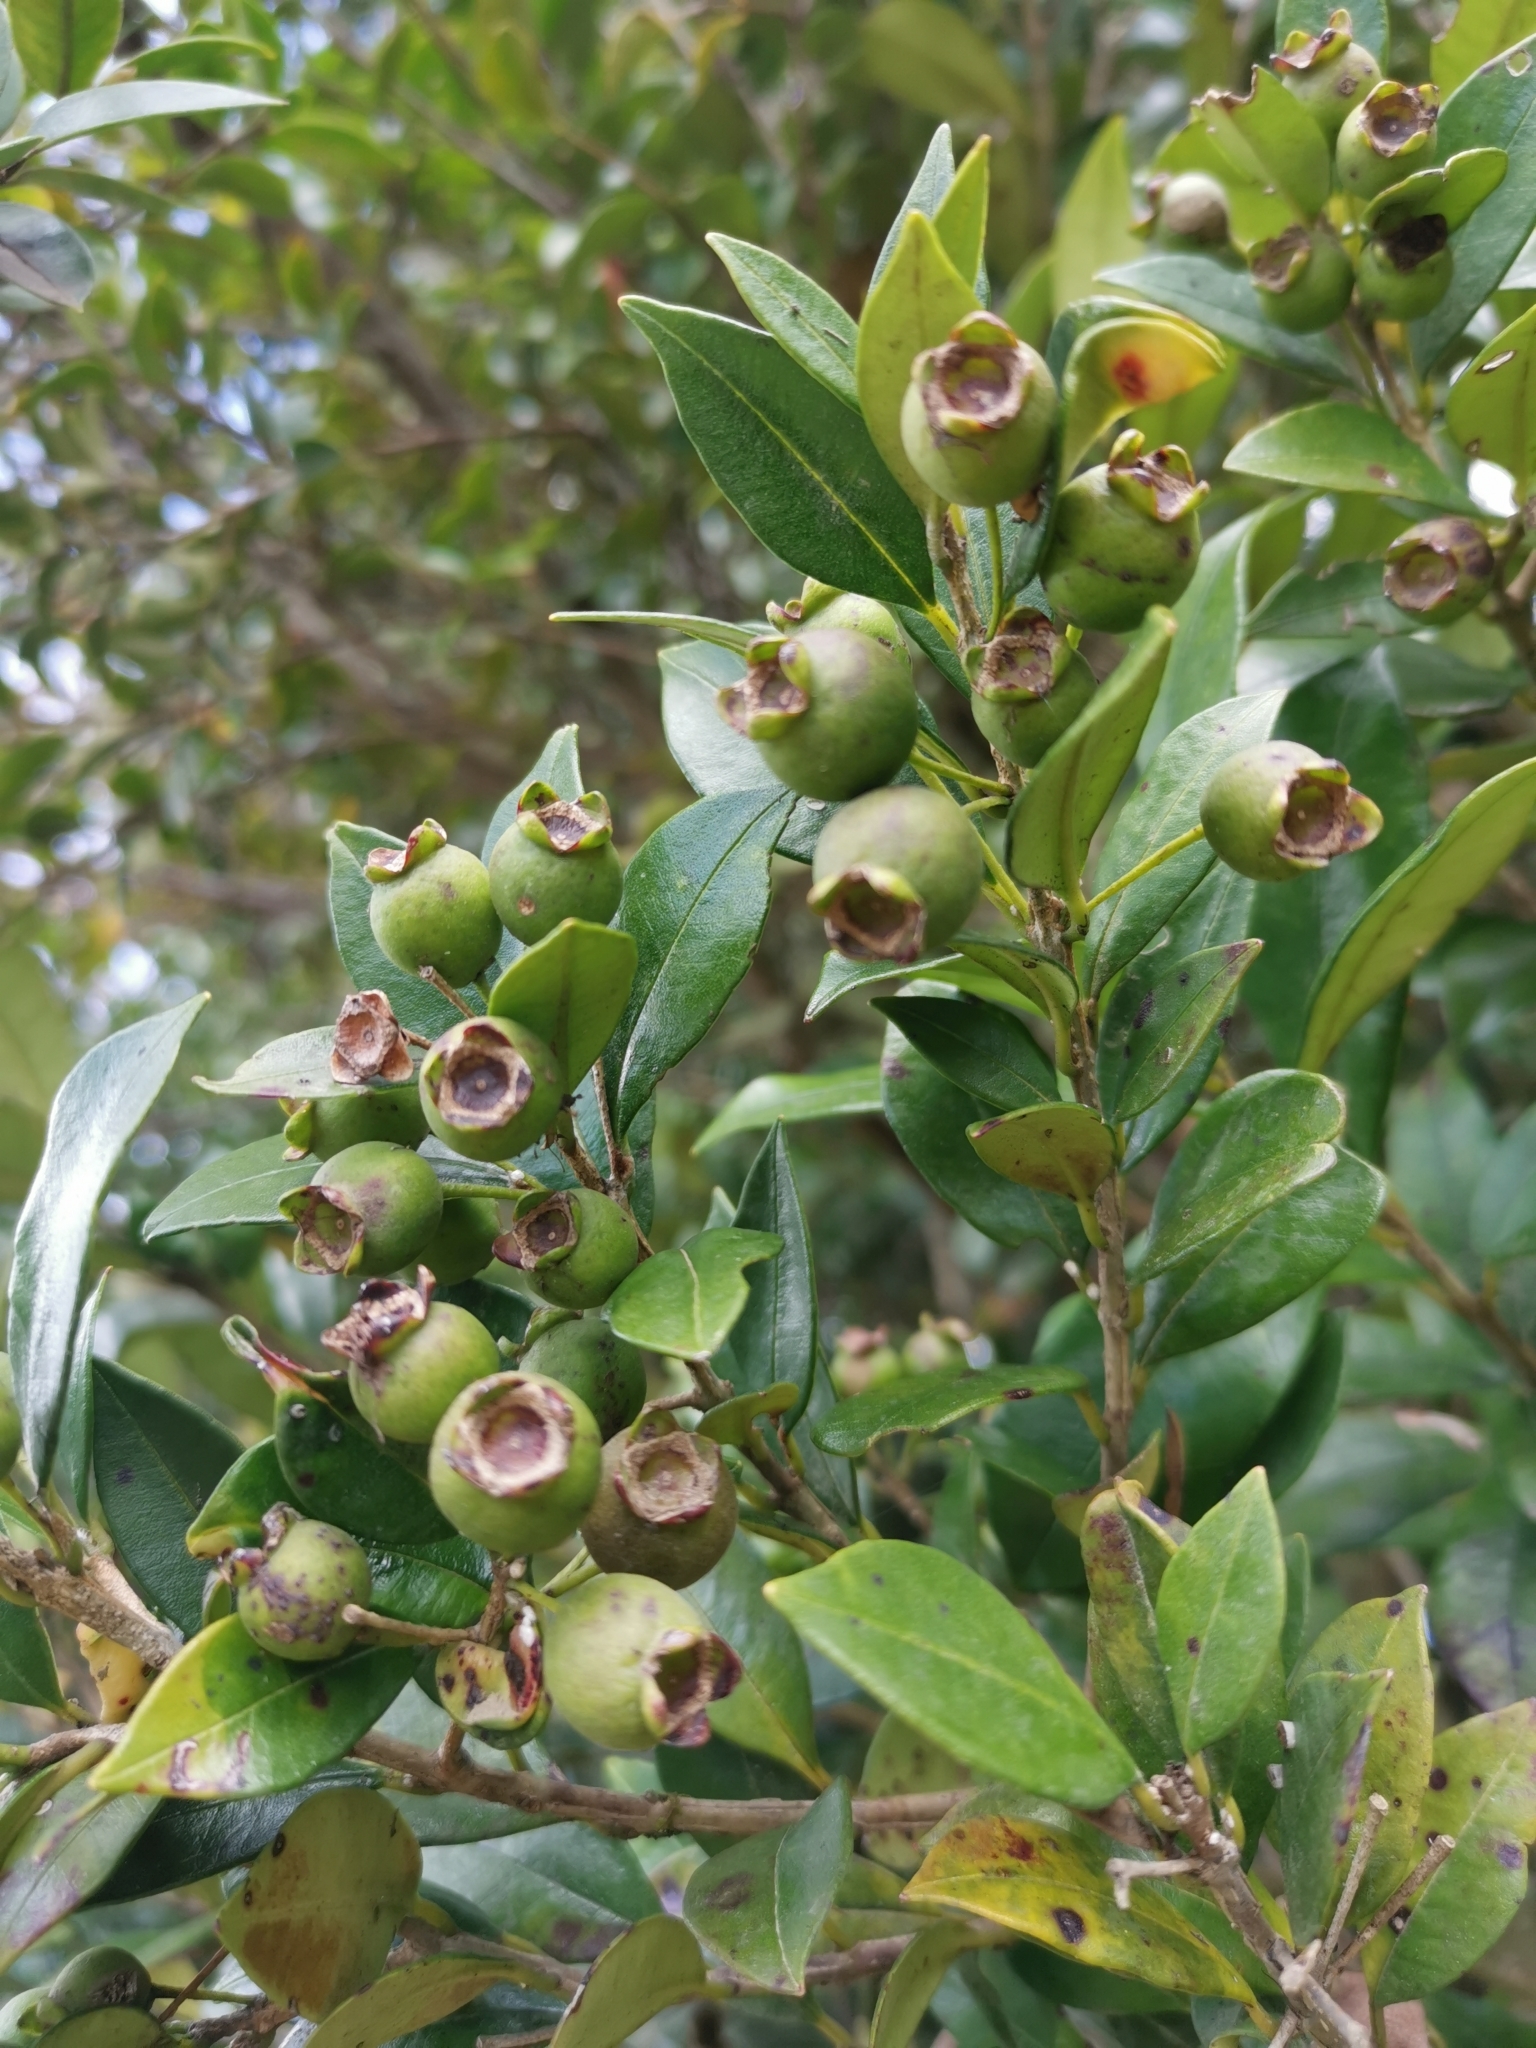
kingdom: Plantae
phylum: Tracheophyta
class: Magnoliopsida
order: Myrtales
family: Myrtaceae
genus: Myrceugenia
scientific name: Myrceugenia planipes
